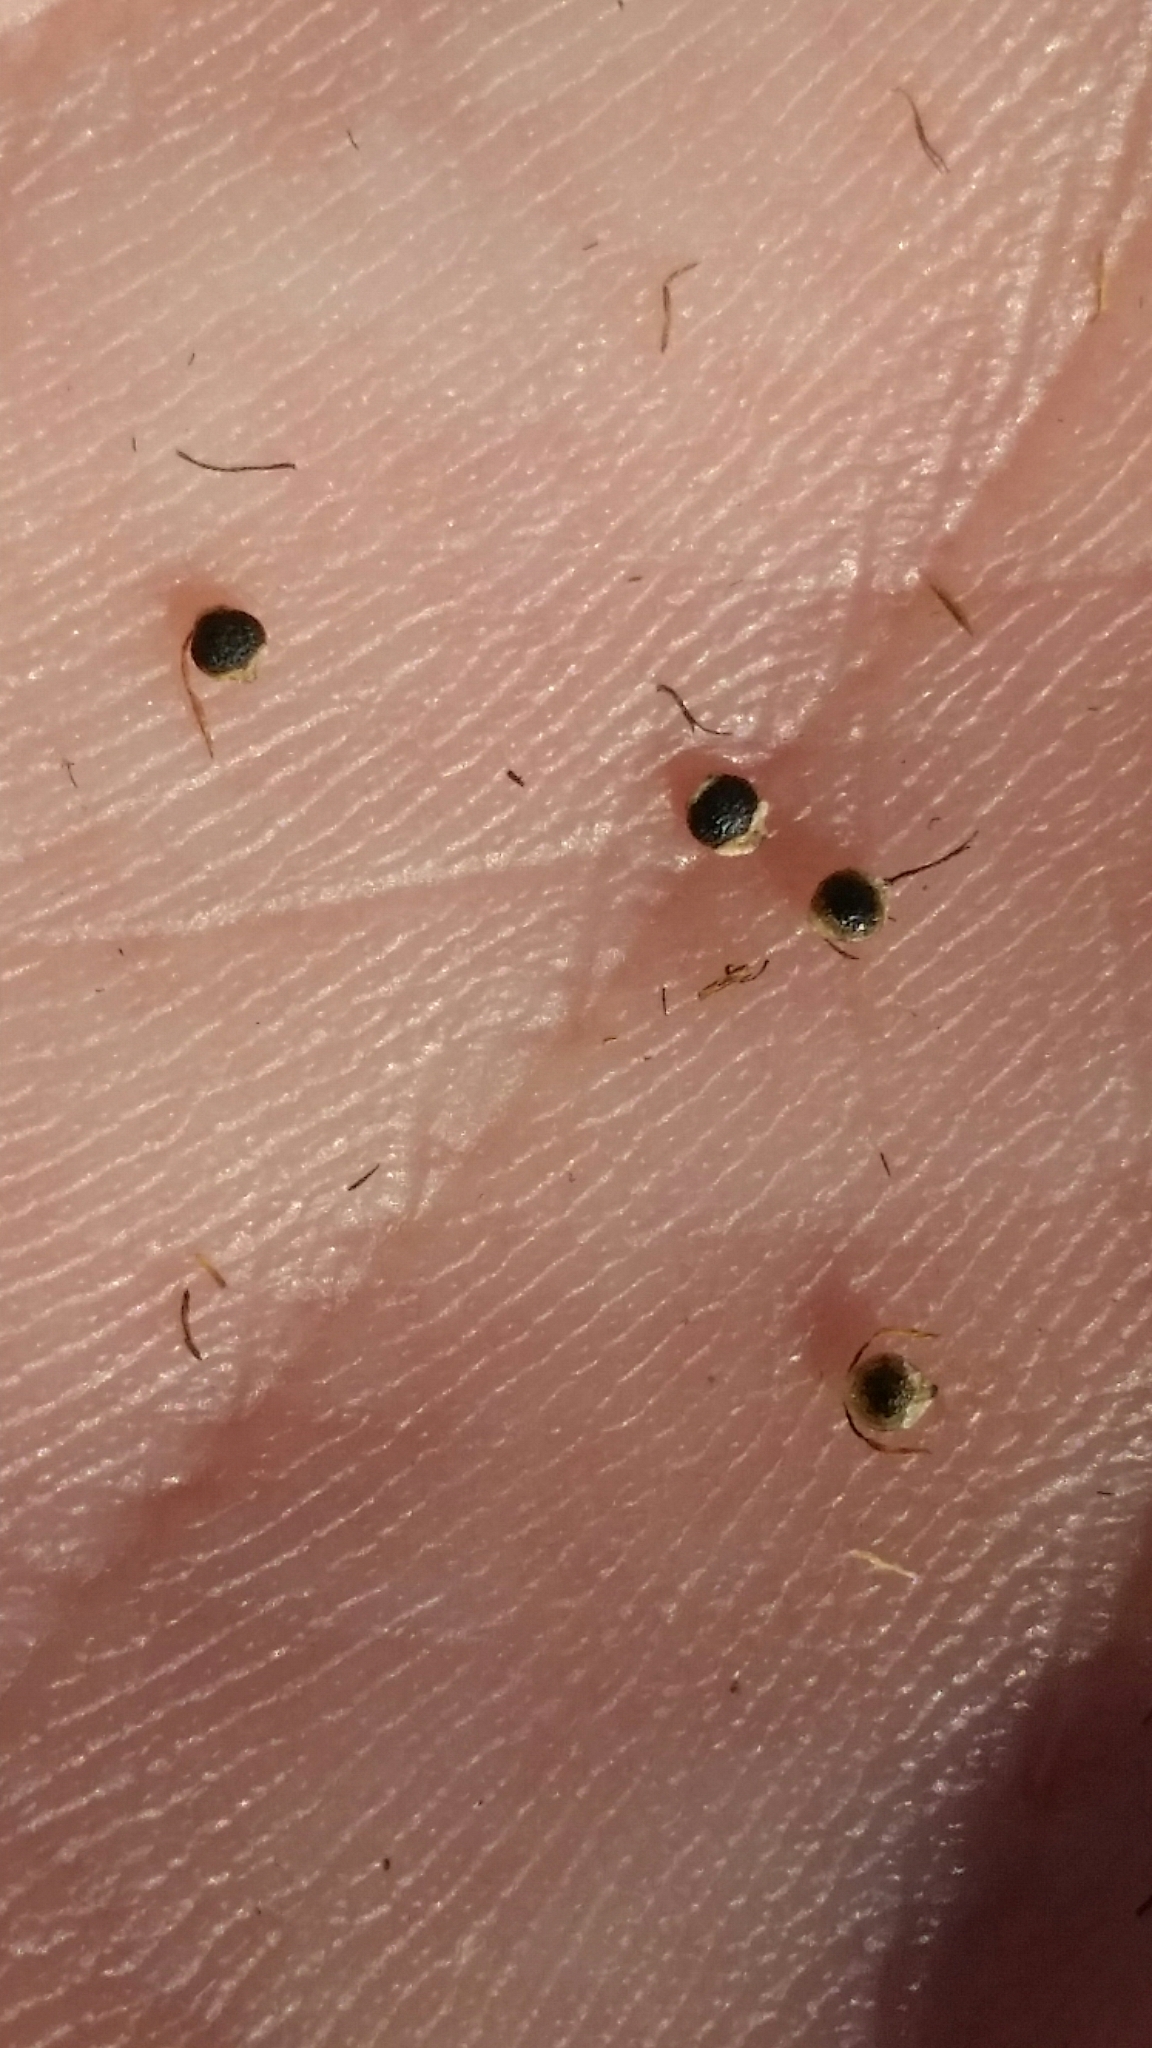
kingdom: Plantae
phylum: Tracheophyta
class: Liliopsida
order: Poales
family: Cyperaceae
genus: Rhynchospora
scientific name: Rhynchospora nitens
